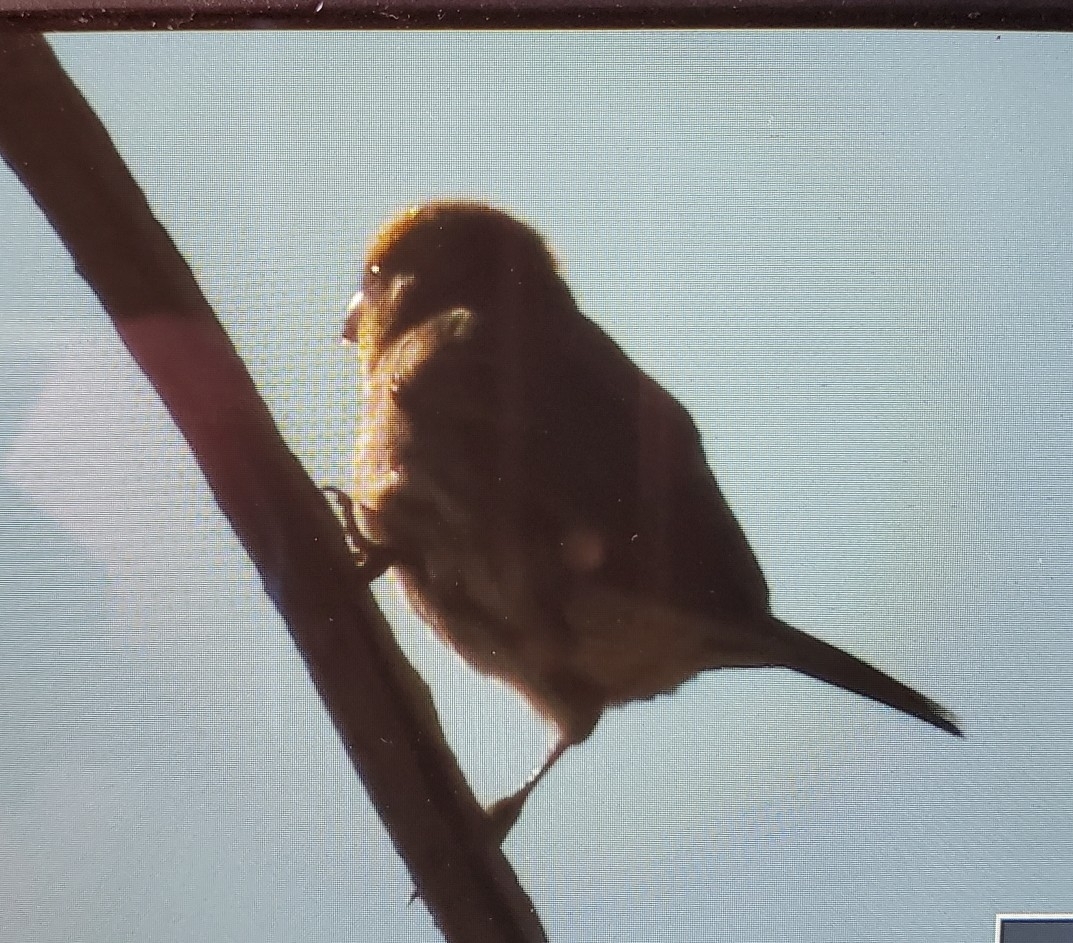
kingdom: Animalia
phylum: Chordata
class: Aves
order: Passeriformes
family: Fringillidae
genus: Haemorhous
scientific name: Haemorhous mexicanus
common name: House finch
